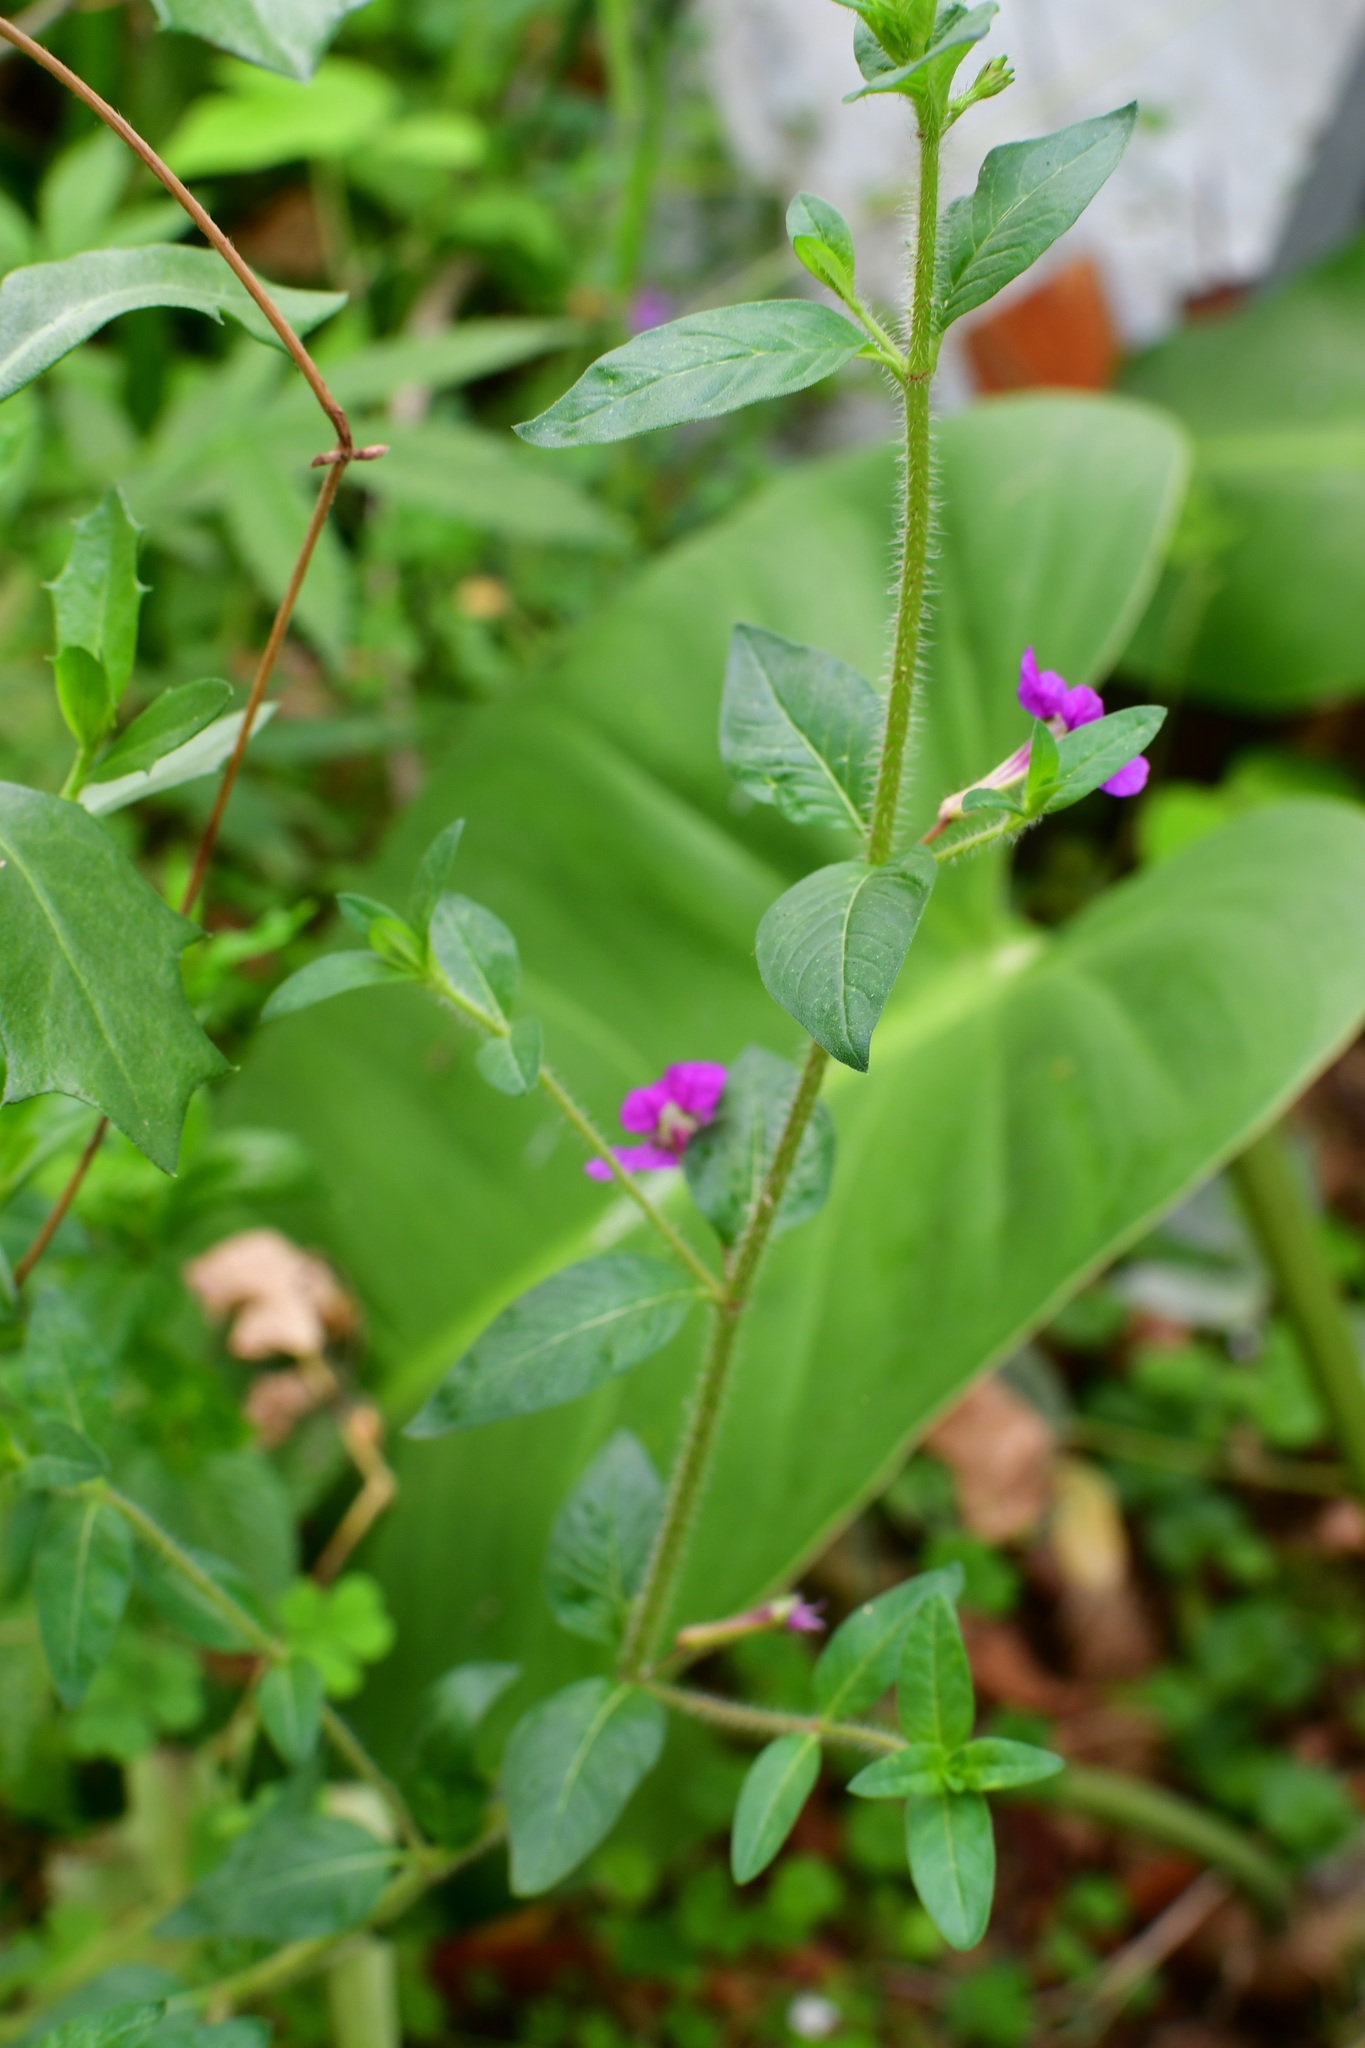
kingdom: Plantae
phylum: Tracheophyta
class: Magnoliopsida
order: Myrtales
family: Lythraceae
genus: Cuphea
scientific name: Cuphea aequipetala
